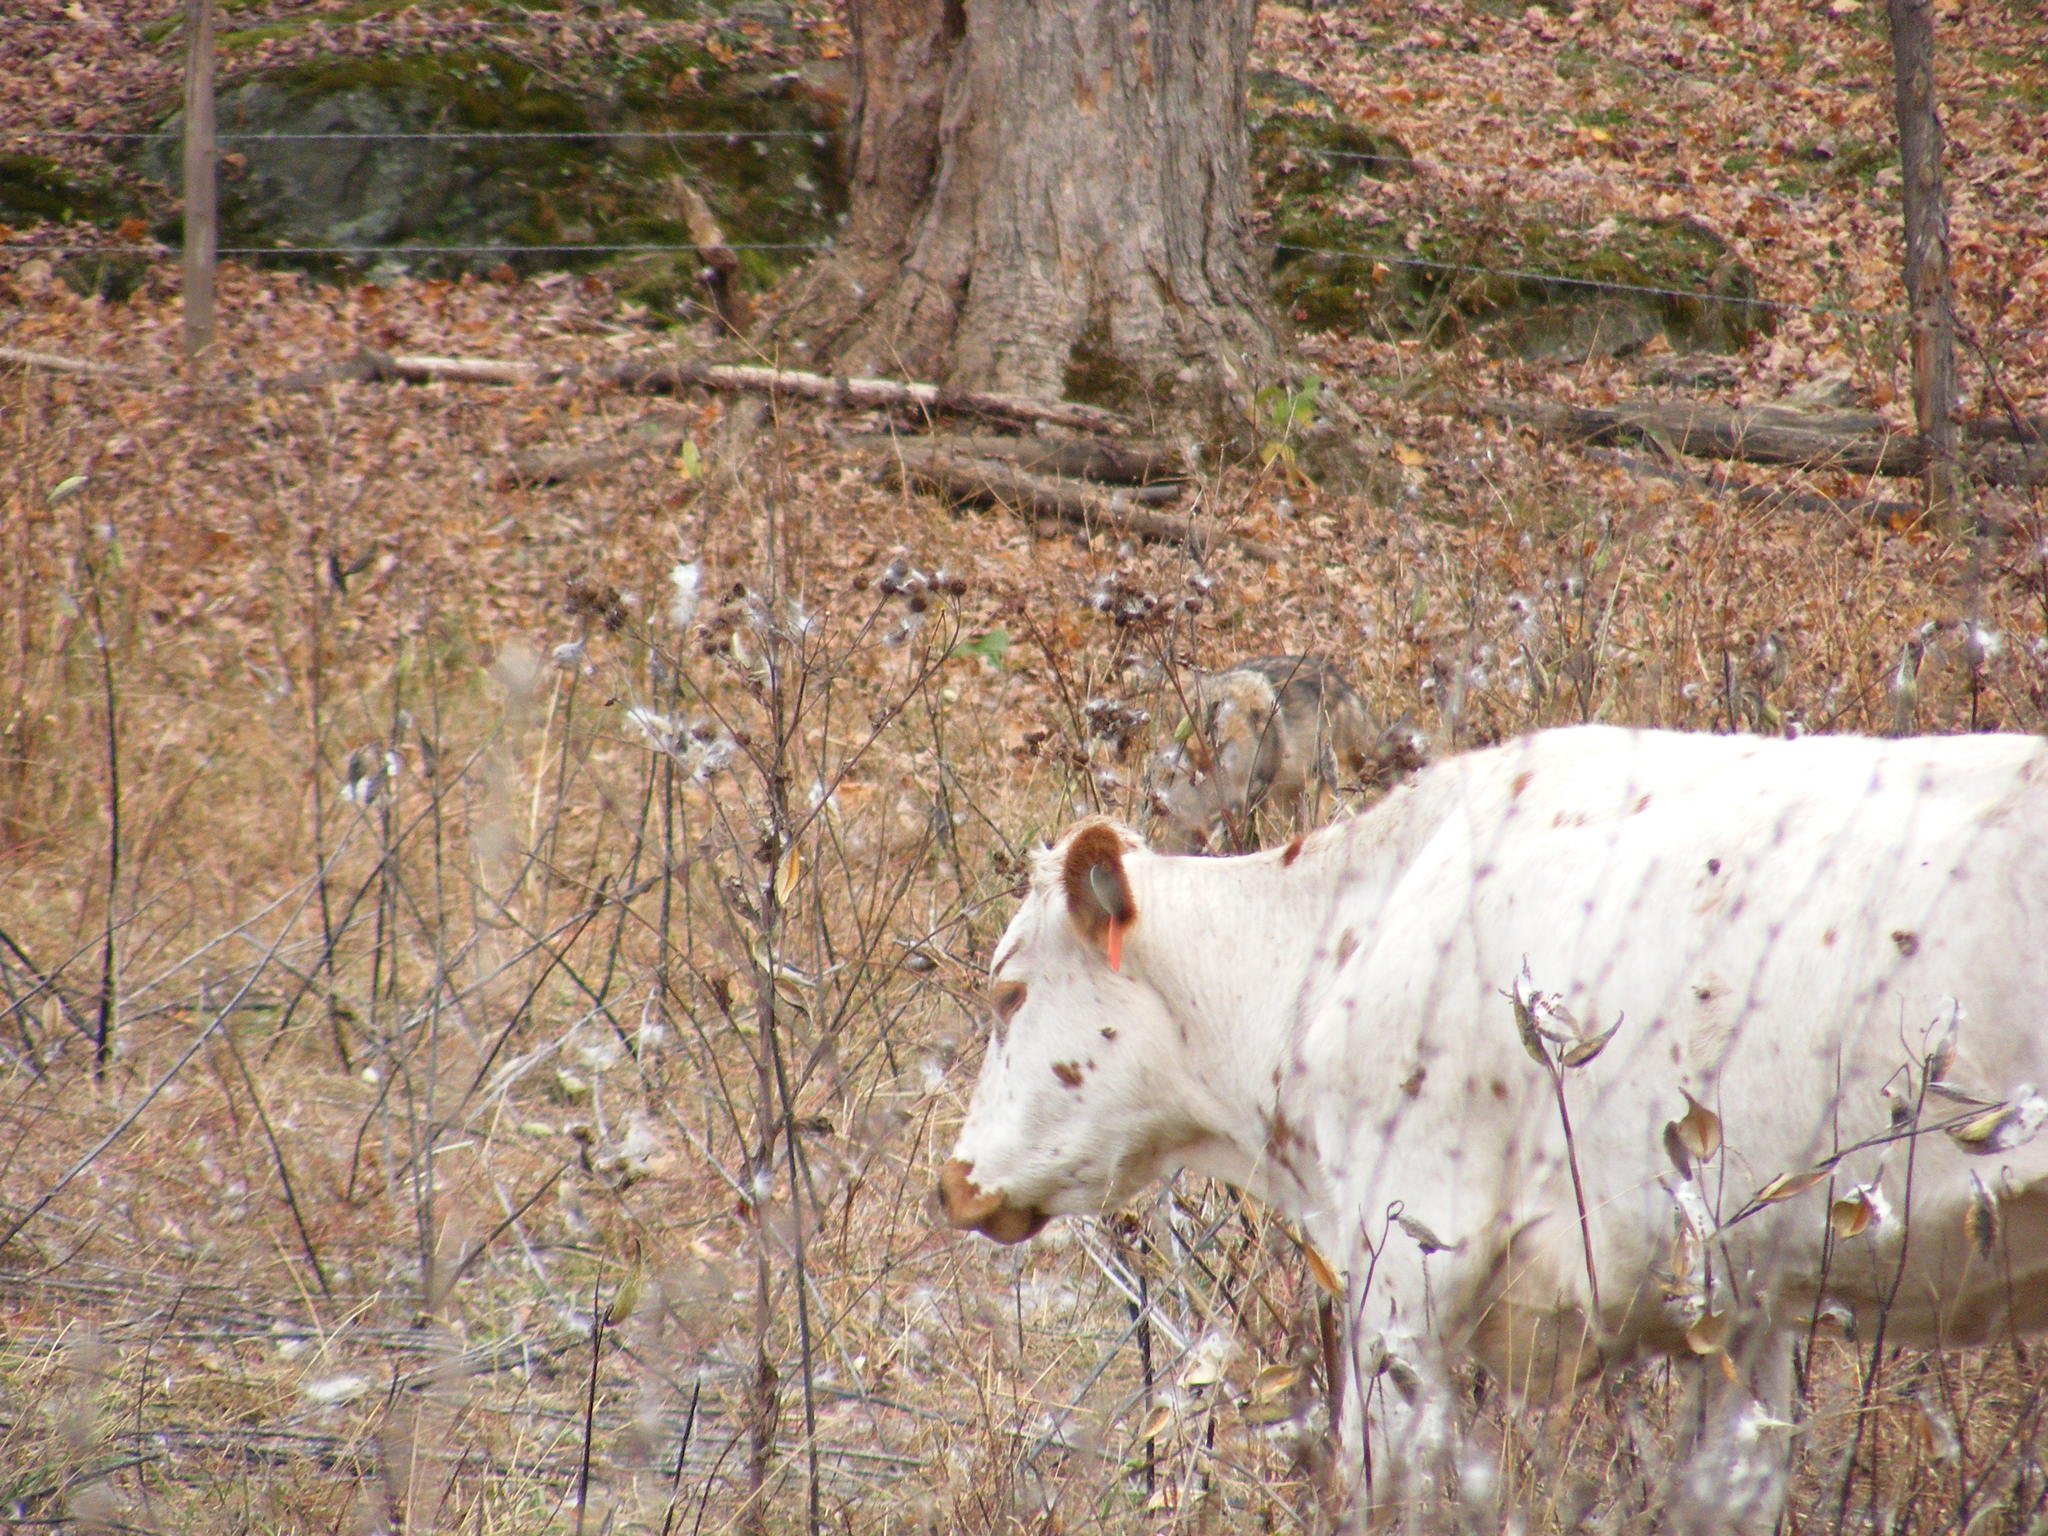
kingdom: Animalia
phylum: Chordata
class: Mammalia
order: Carnivora
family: Canidae
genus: Canis
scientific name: Canis latrans
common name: Coyote
